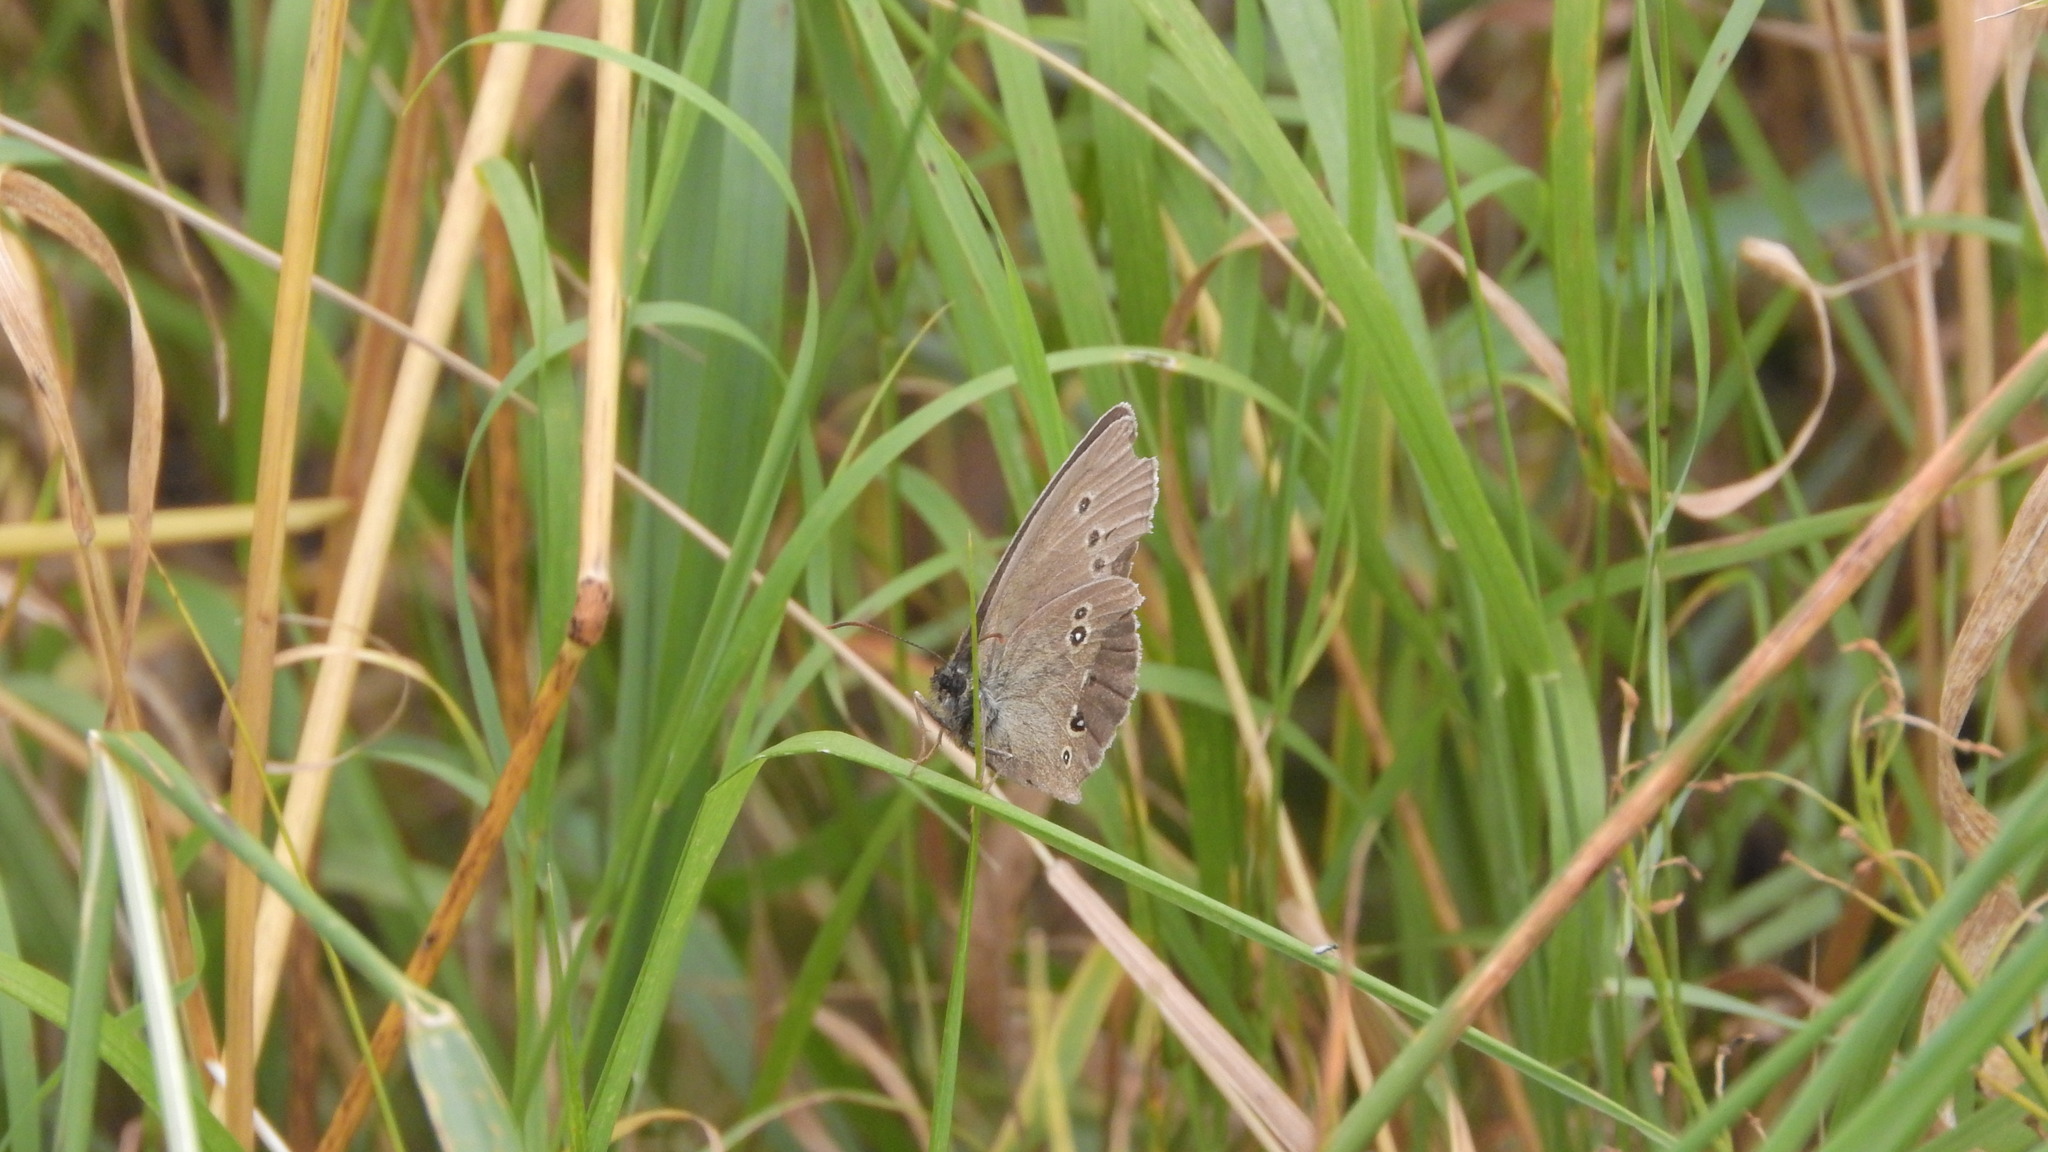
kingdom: Animalia
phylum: Arthropoda
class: Insecta
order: Lepidoptera
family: Nymphalidae
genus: Aphantopus
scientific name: Aphantopus hyperantus
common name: Ringlet
